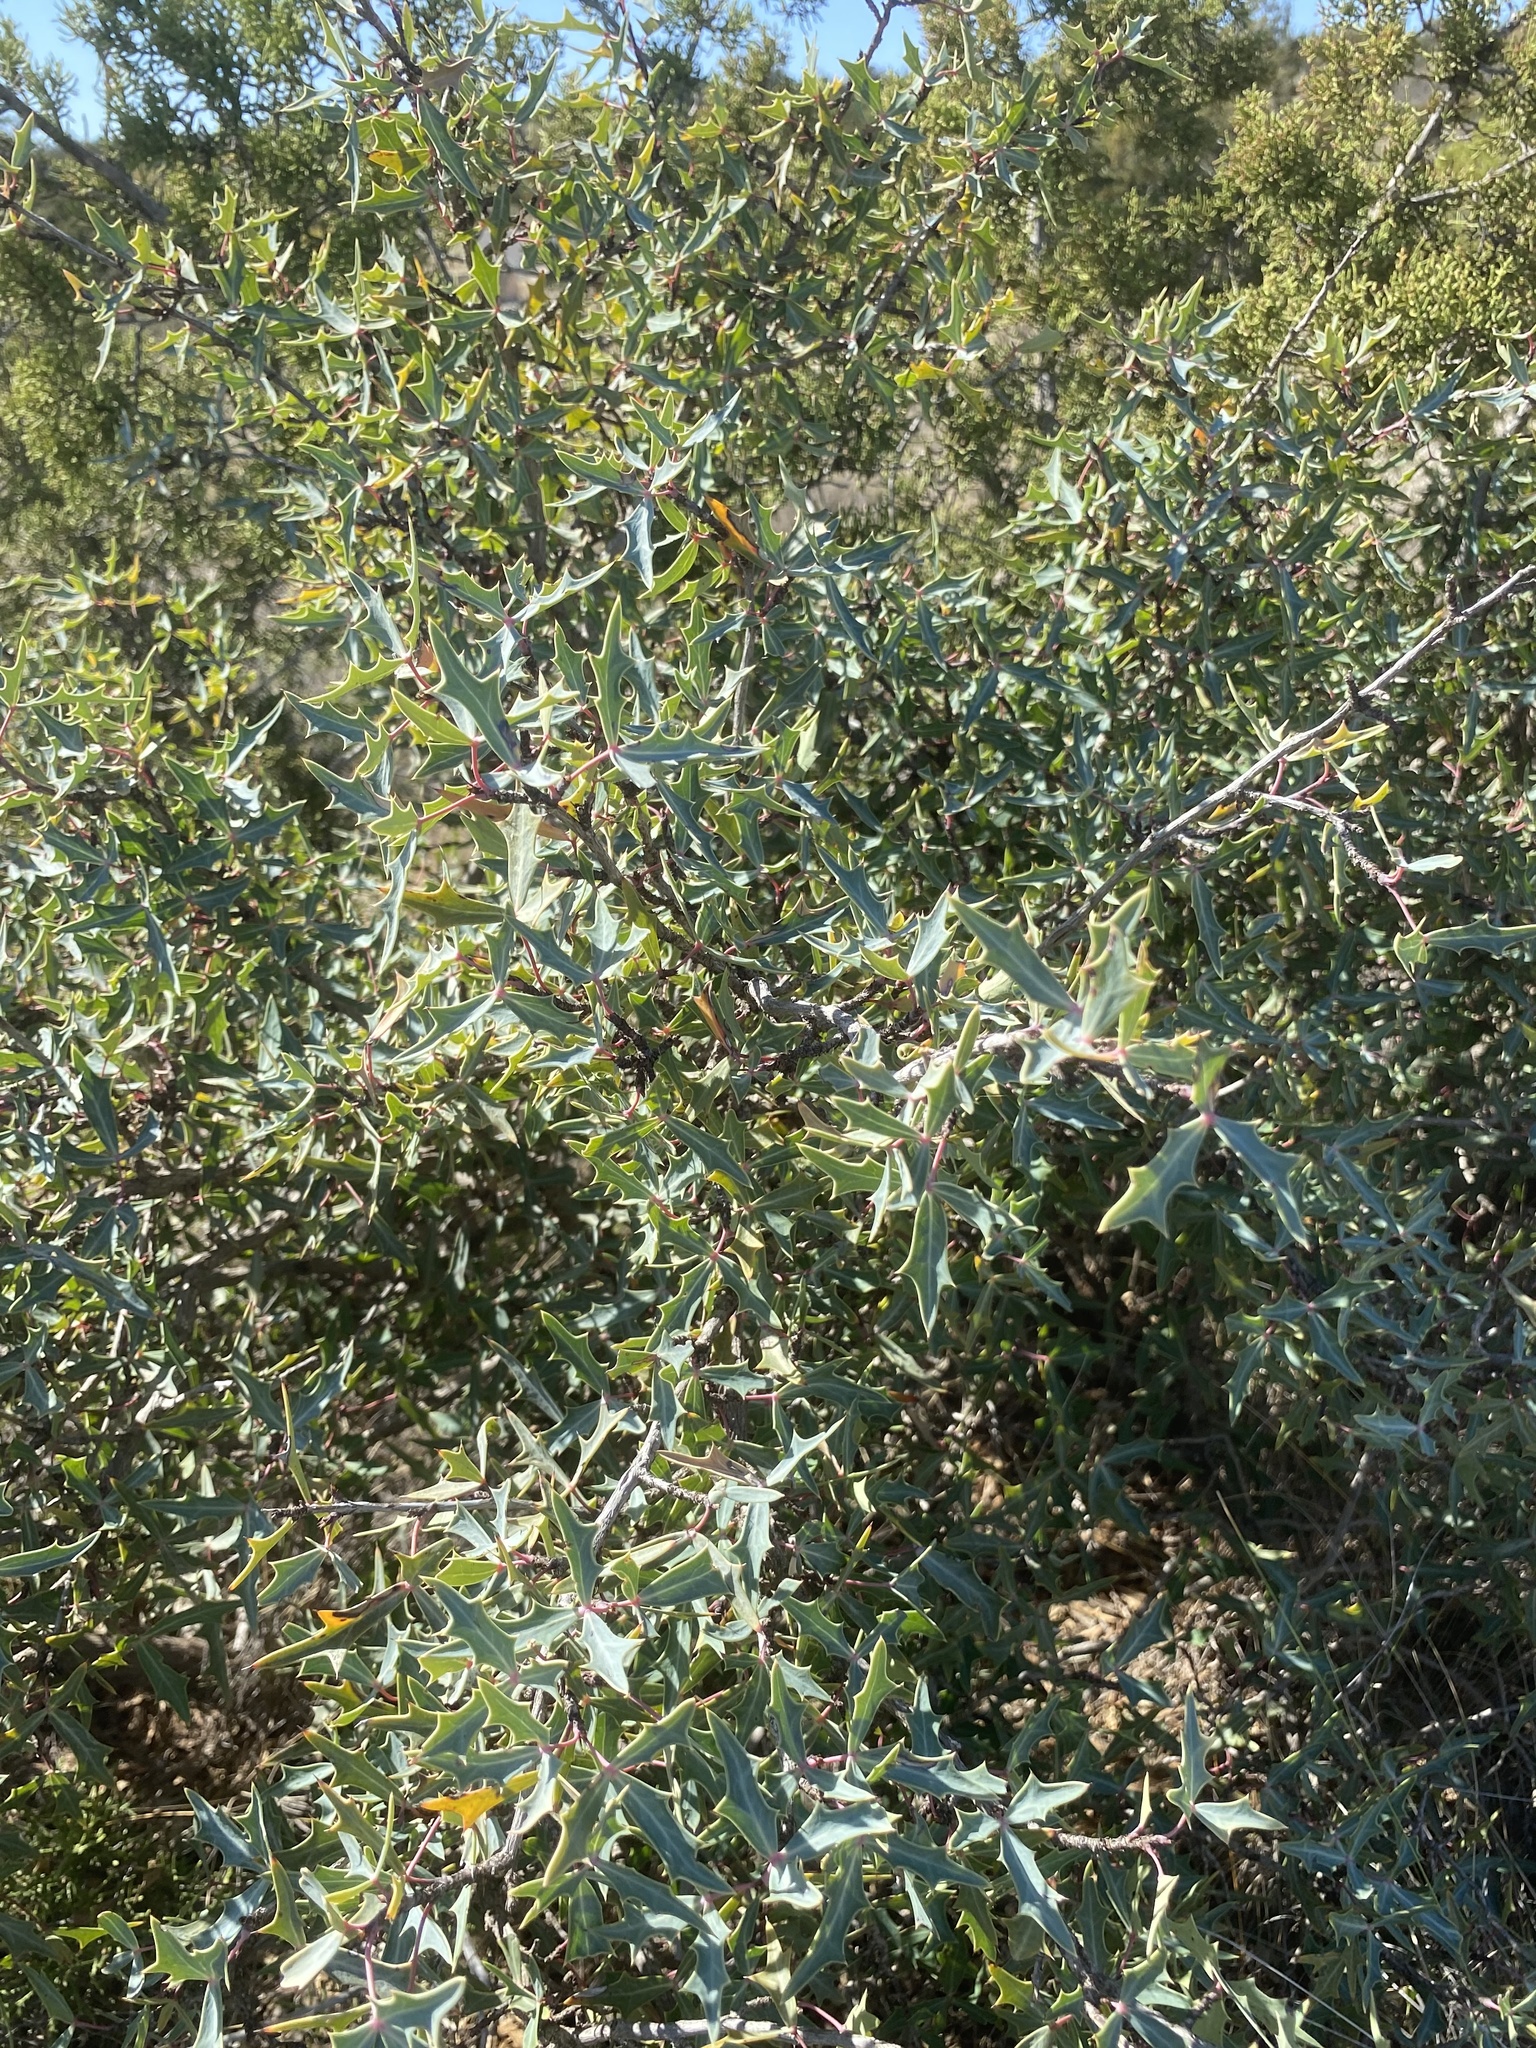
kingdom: Plantae
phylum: Tracheophyta
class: Magnoliopsida
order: Ranunculales
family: Berberidaceae
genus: Alloberberis
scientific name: Alloberberis trifoliolata
